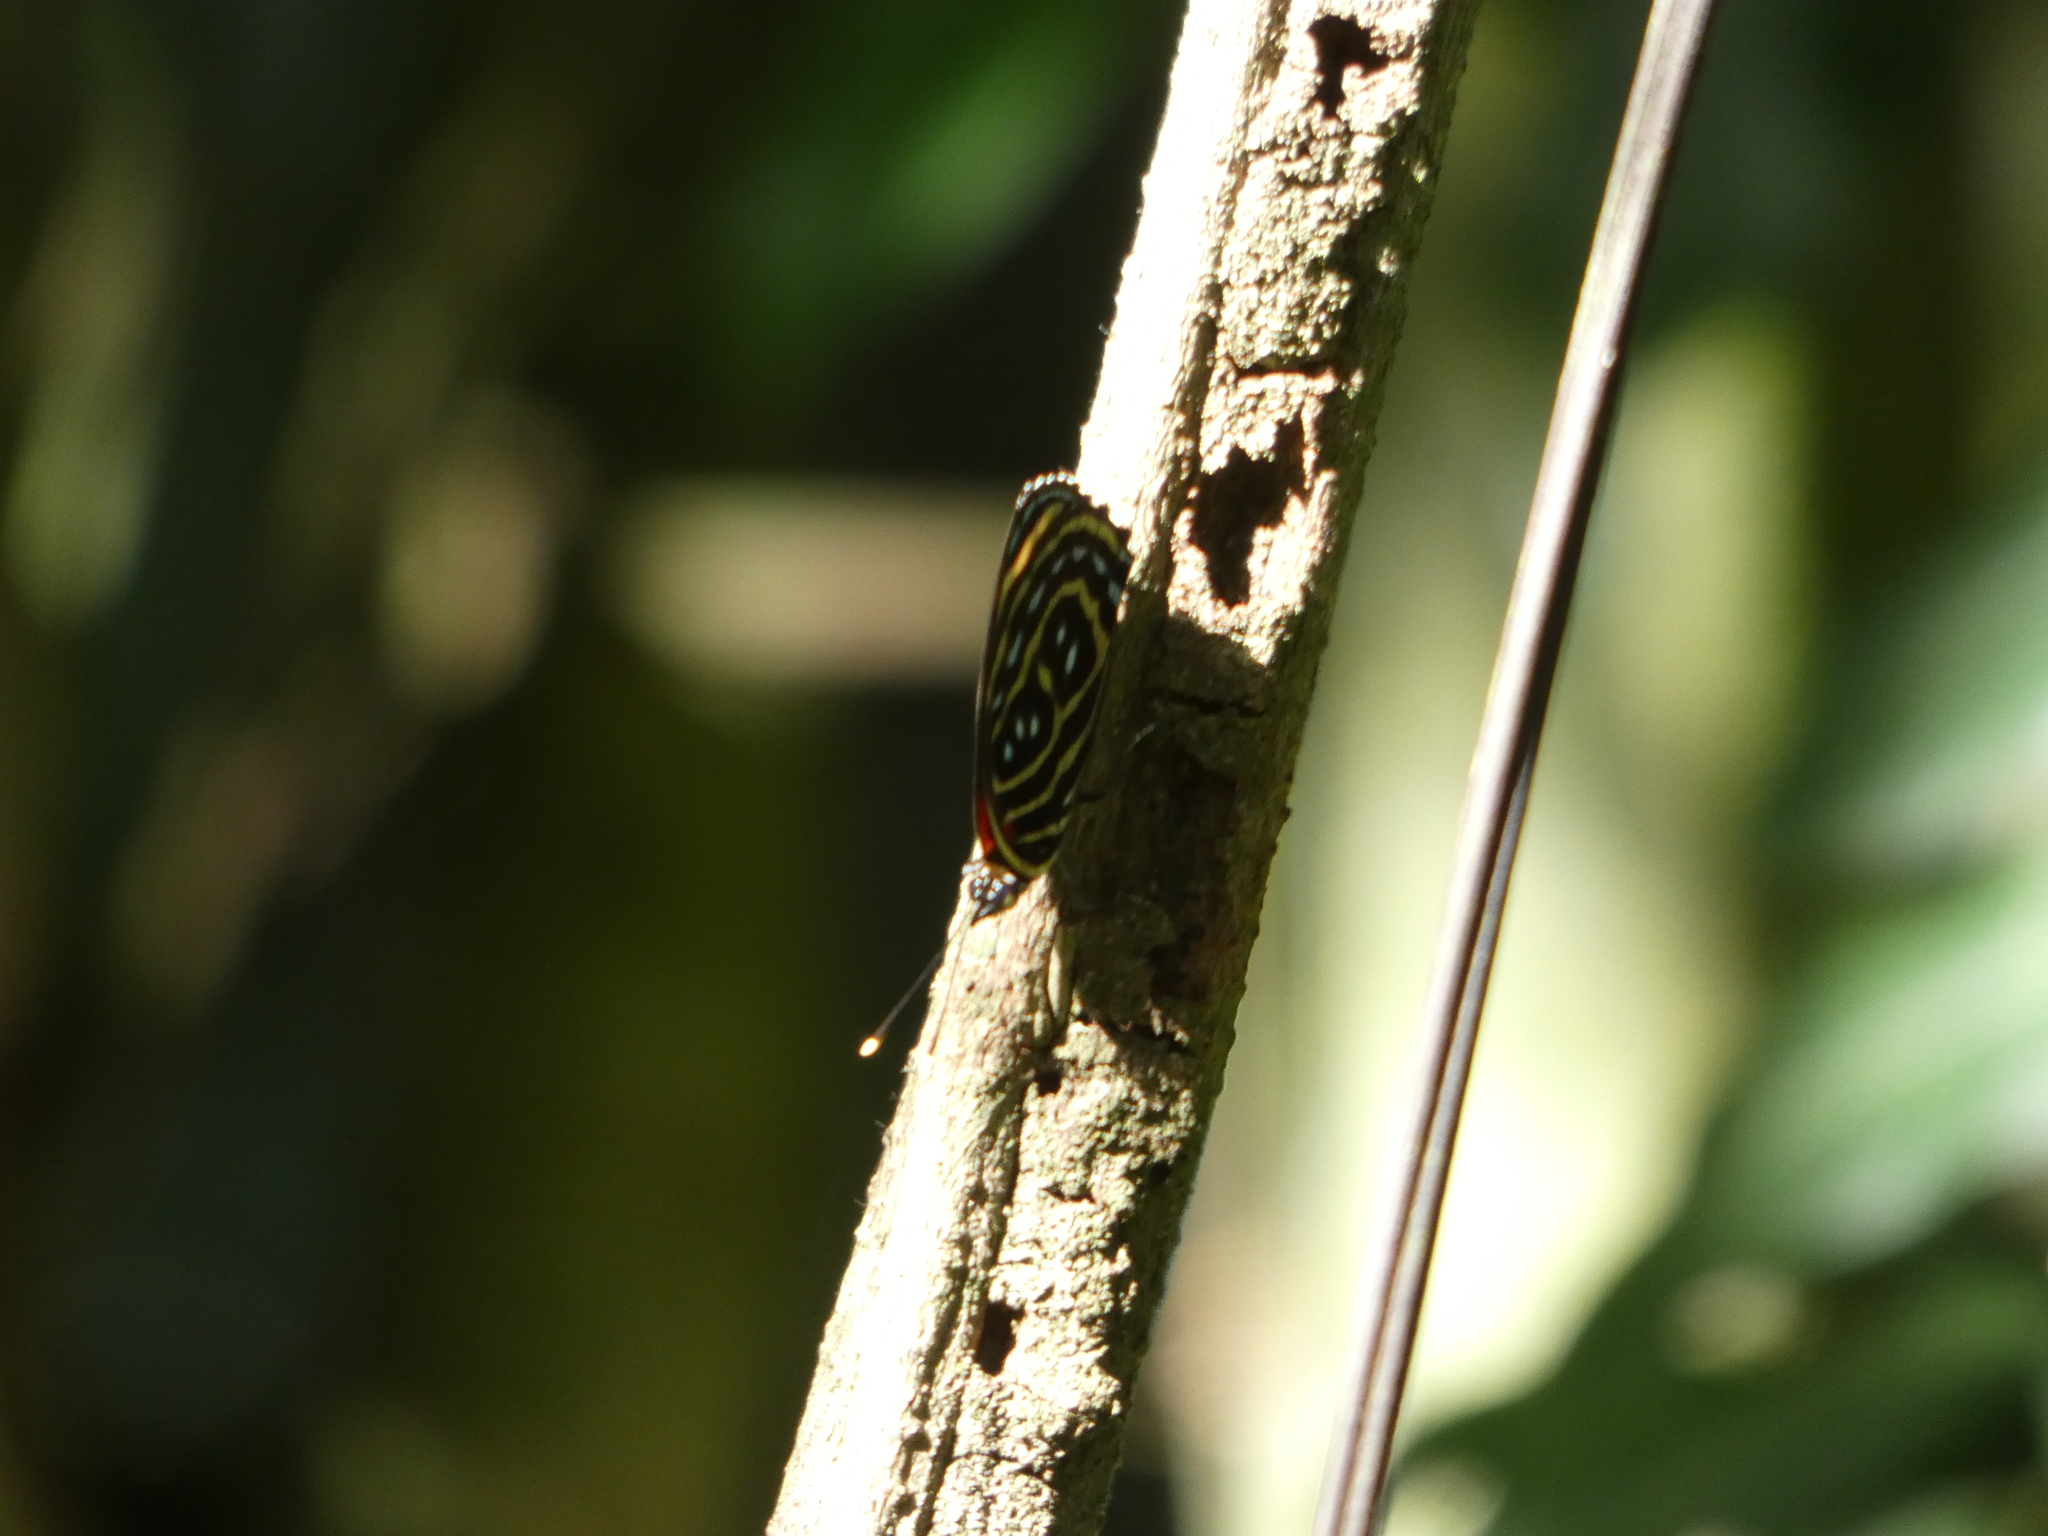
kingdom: Animalia
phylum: Arthropoda
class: Insecta
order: Lepidoptera
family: Nymphalidae
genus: Catagramma
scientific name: Catagramma pygas
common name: Godart's numberwing
